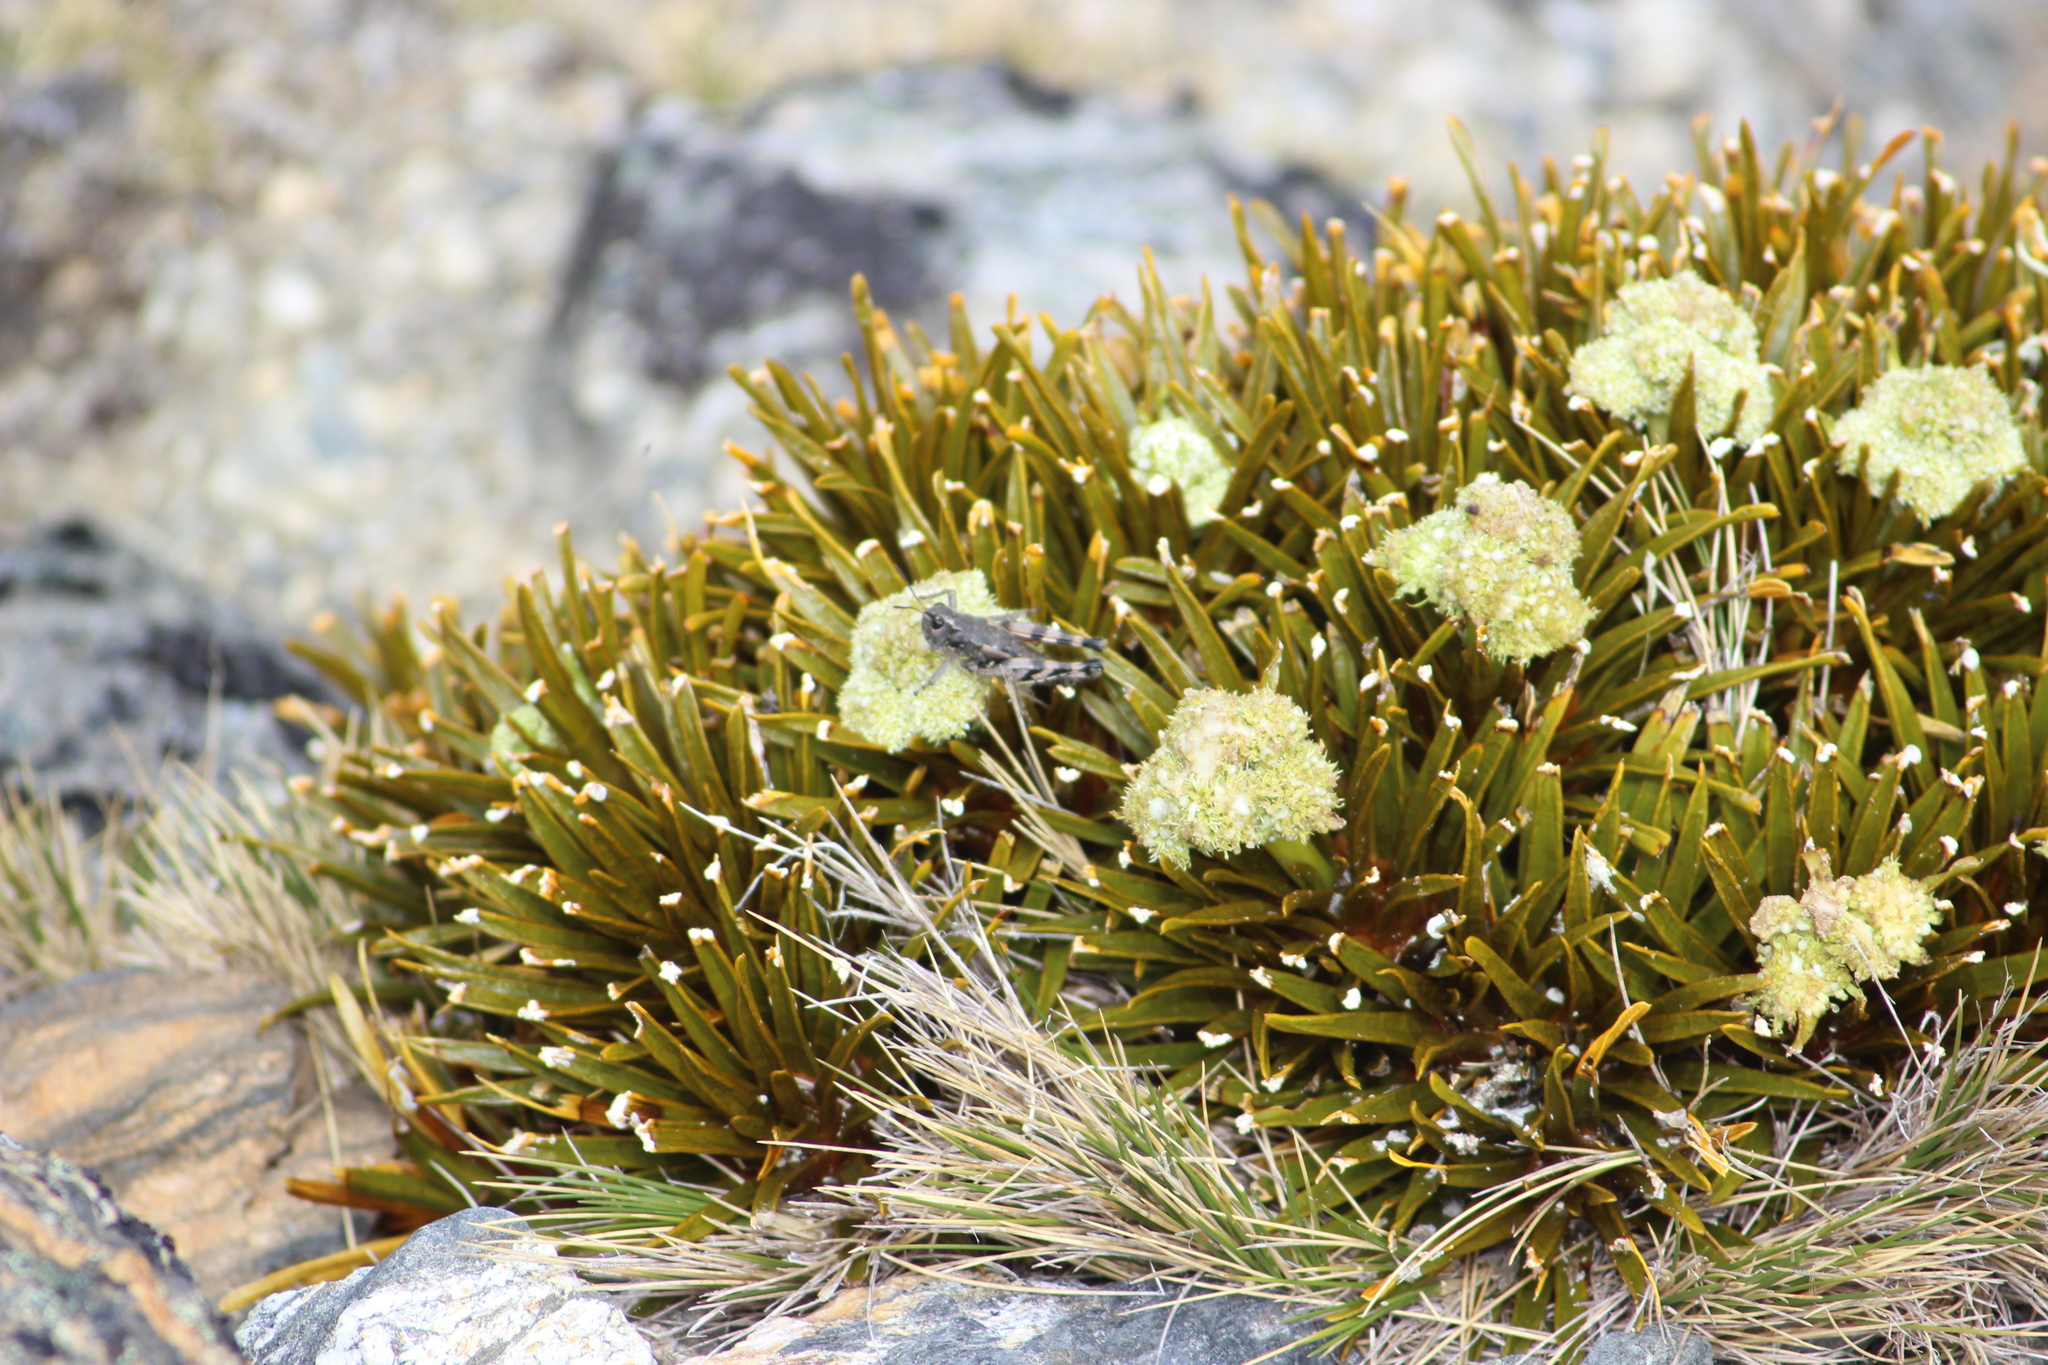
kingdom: Animalia
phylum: Arthropoda
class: Insecta
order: Orthoptera
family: Acrididae
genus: Sigaus
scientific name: Sigaus australis
